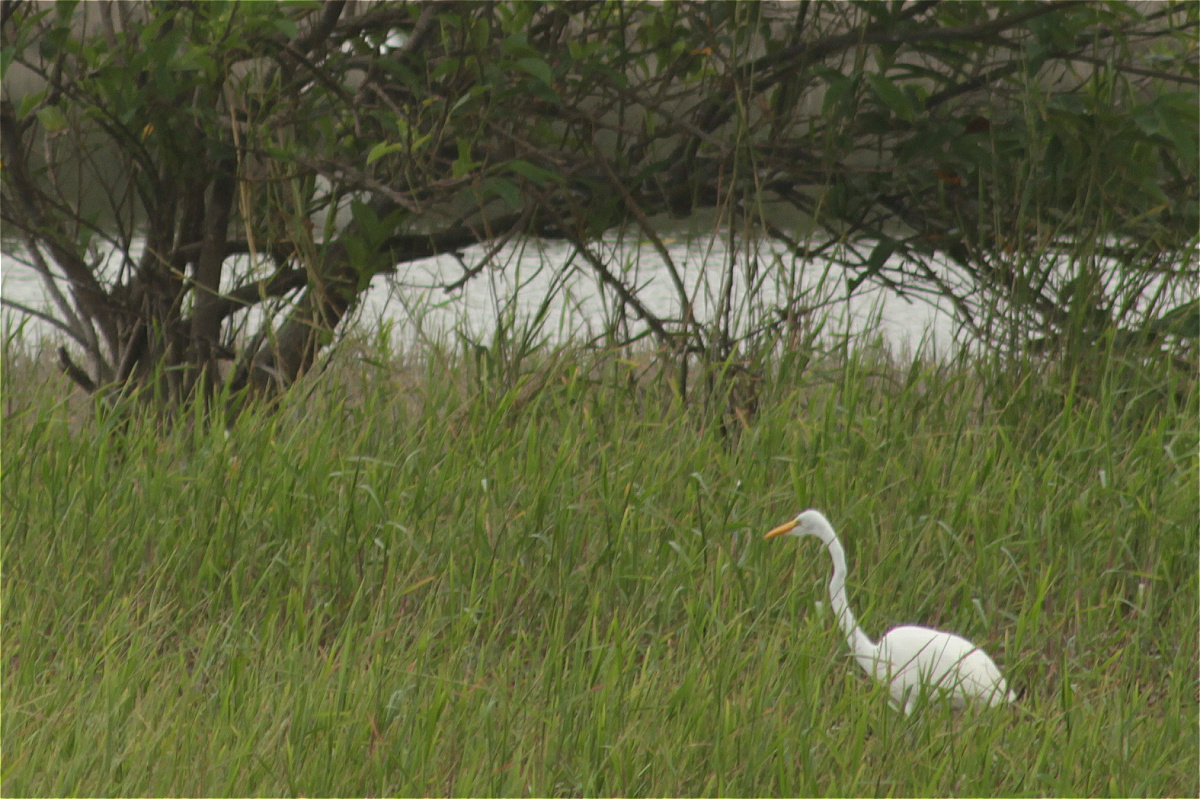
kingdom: Animalia
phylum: Chordata
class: Aves
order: Pelecaniformes
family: Ardeidae
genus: Ardea
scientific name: Ardea alba
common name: Great egret
